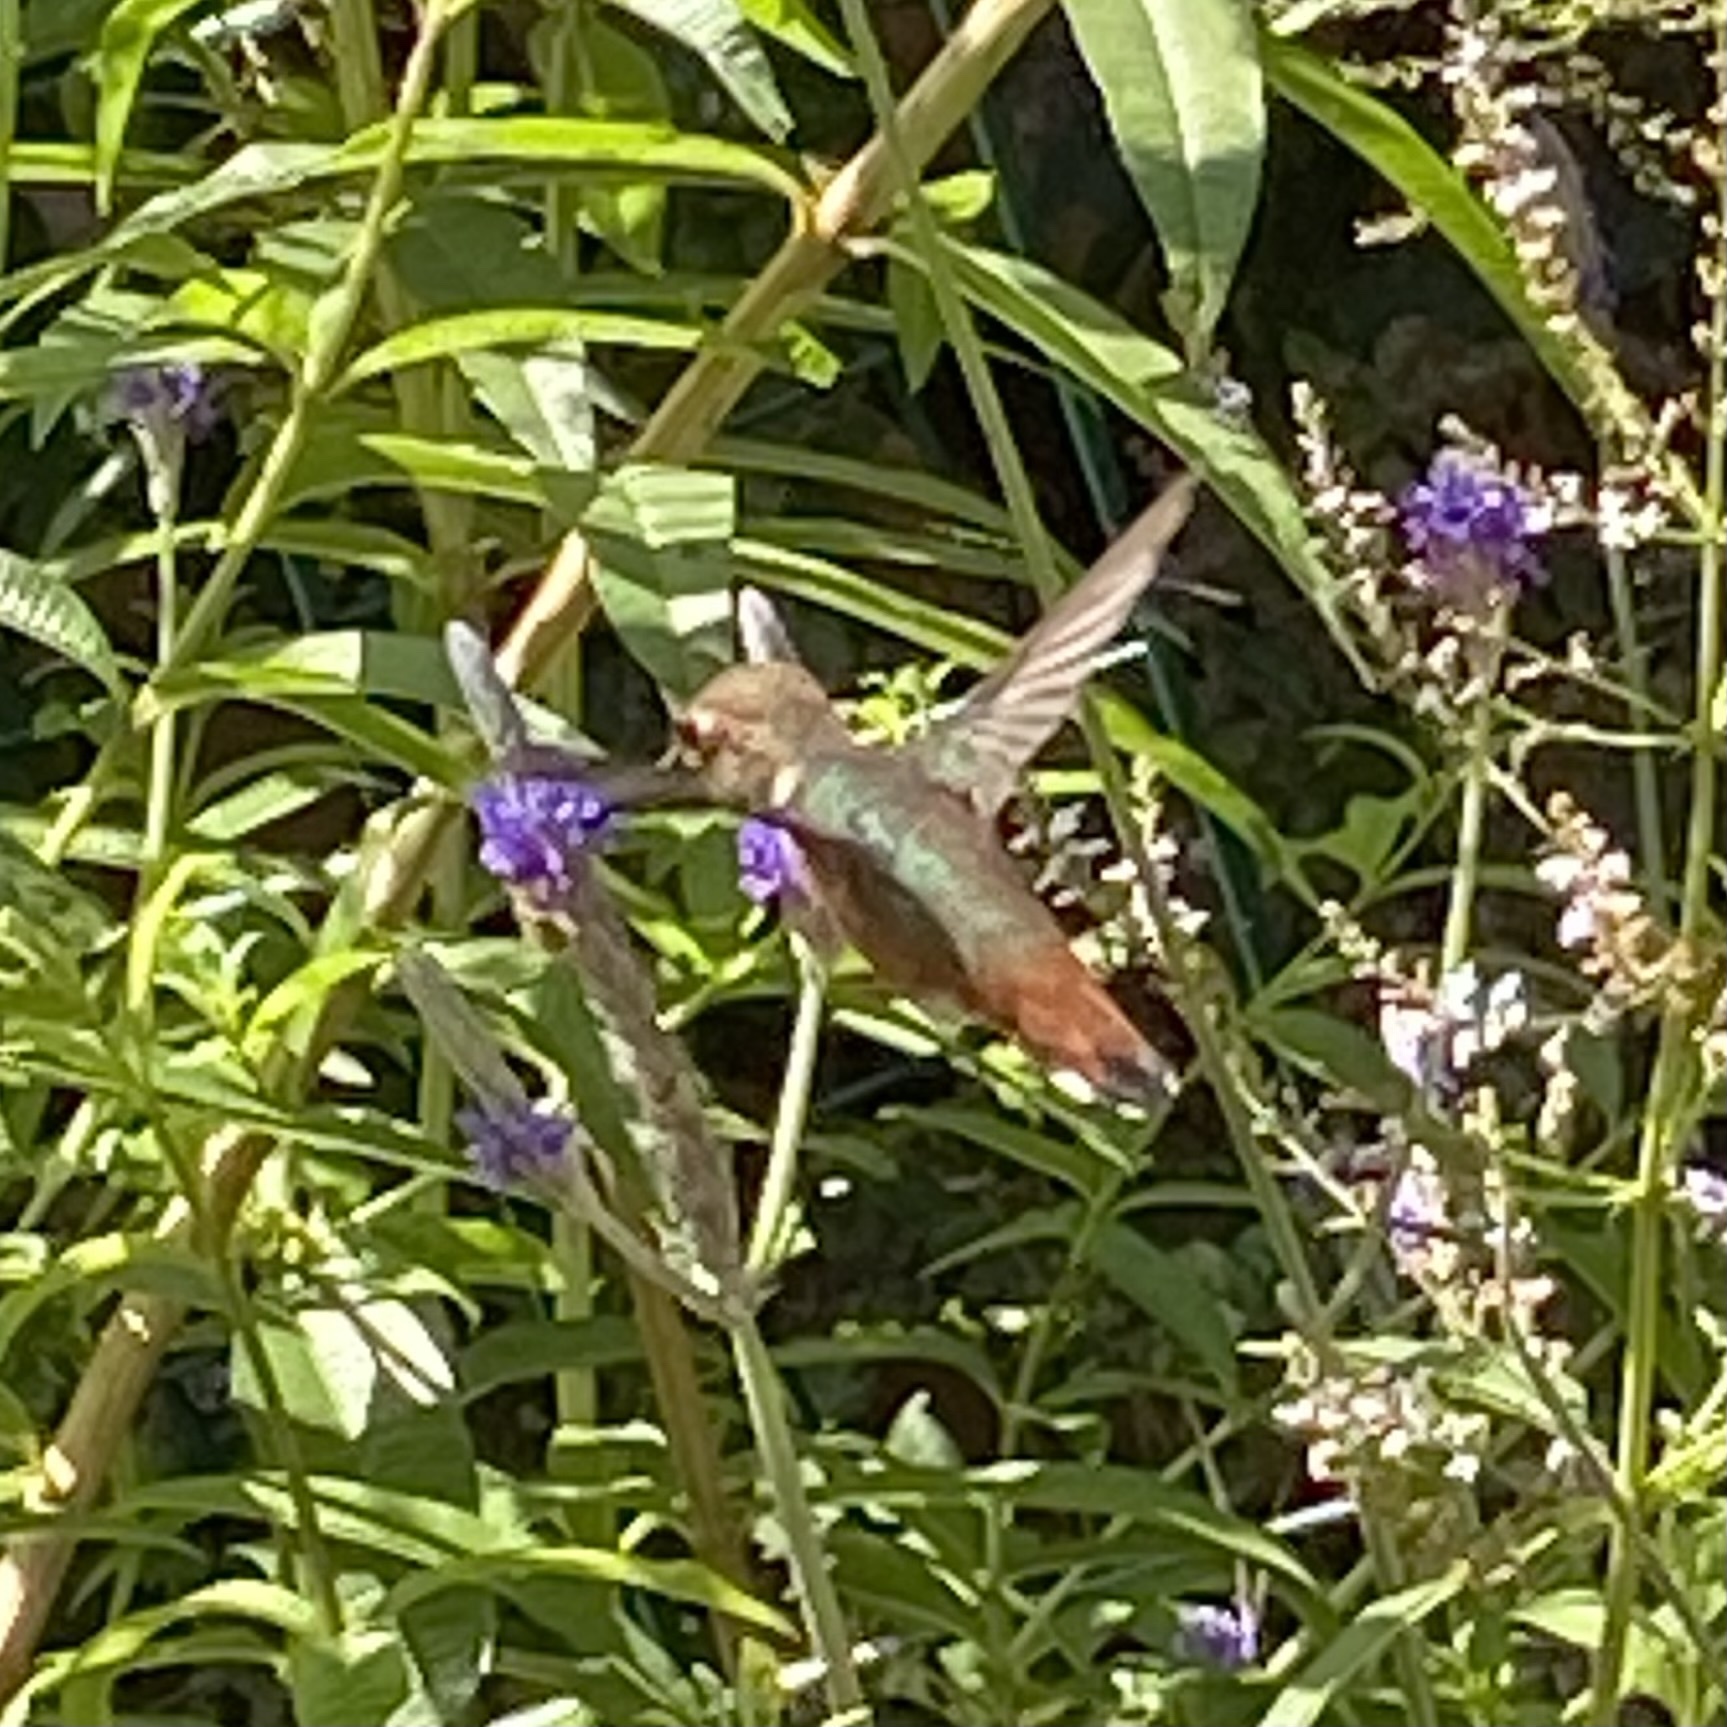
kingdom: Animalia
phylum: Chordata
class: Aves
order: Apodiformes
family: Trochilidae
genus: Selasphorus
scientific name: Selasphorus sasin
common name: Allen's hummingbird
